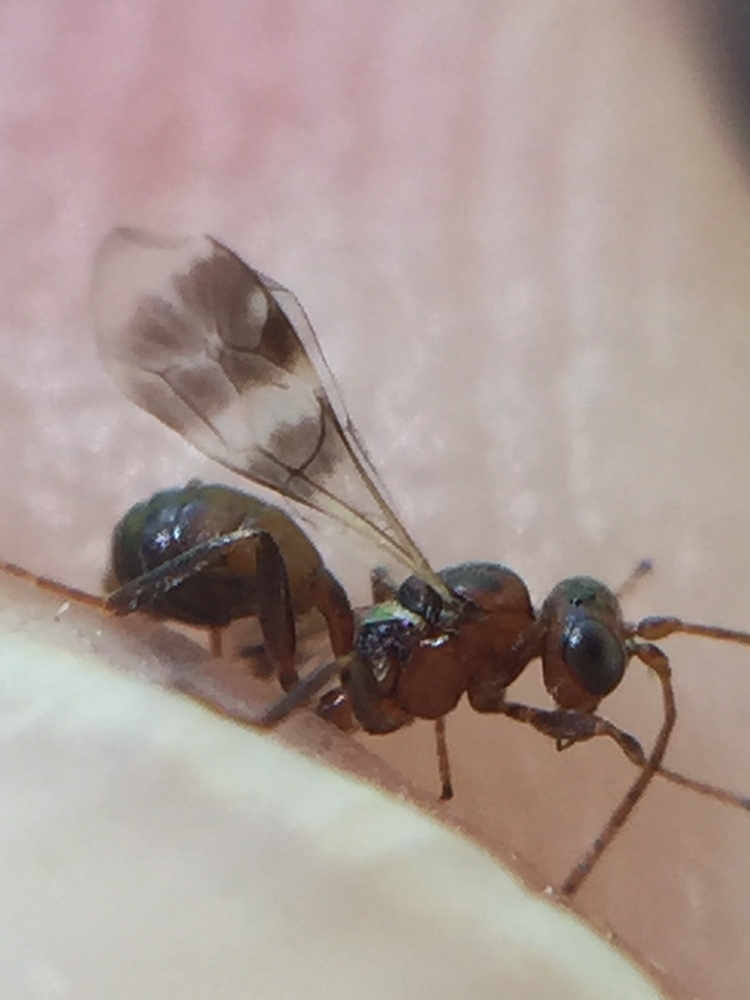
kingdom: Animalia
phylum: Arthropoda
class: Insecta
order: Hymenoptera
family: Ichneumonidae
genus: Gelis
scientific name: Gelis tenellus
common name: Parasitoid wasp
